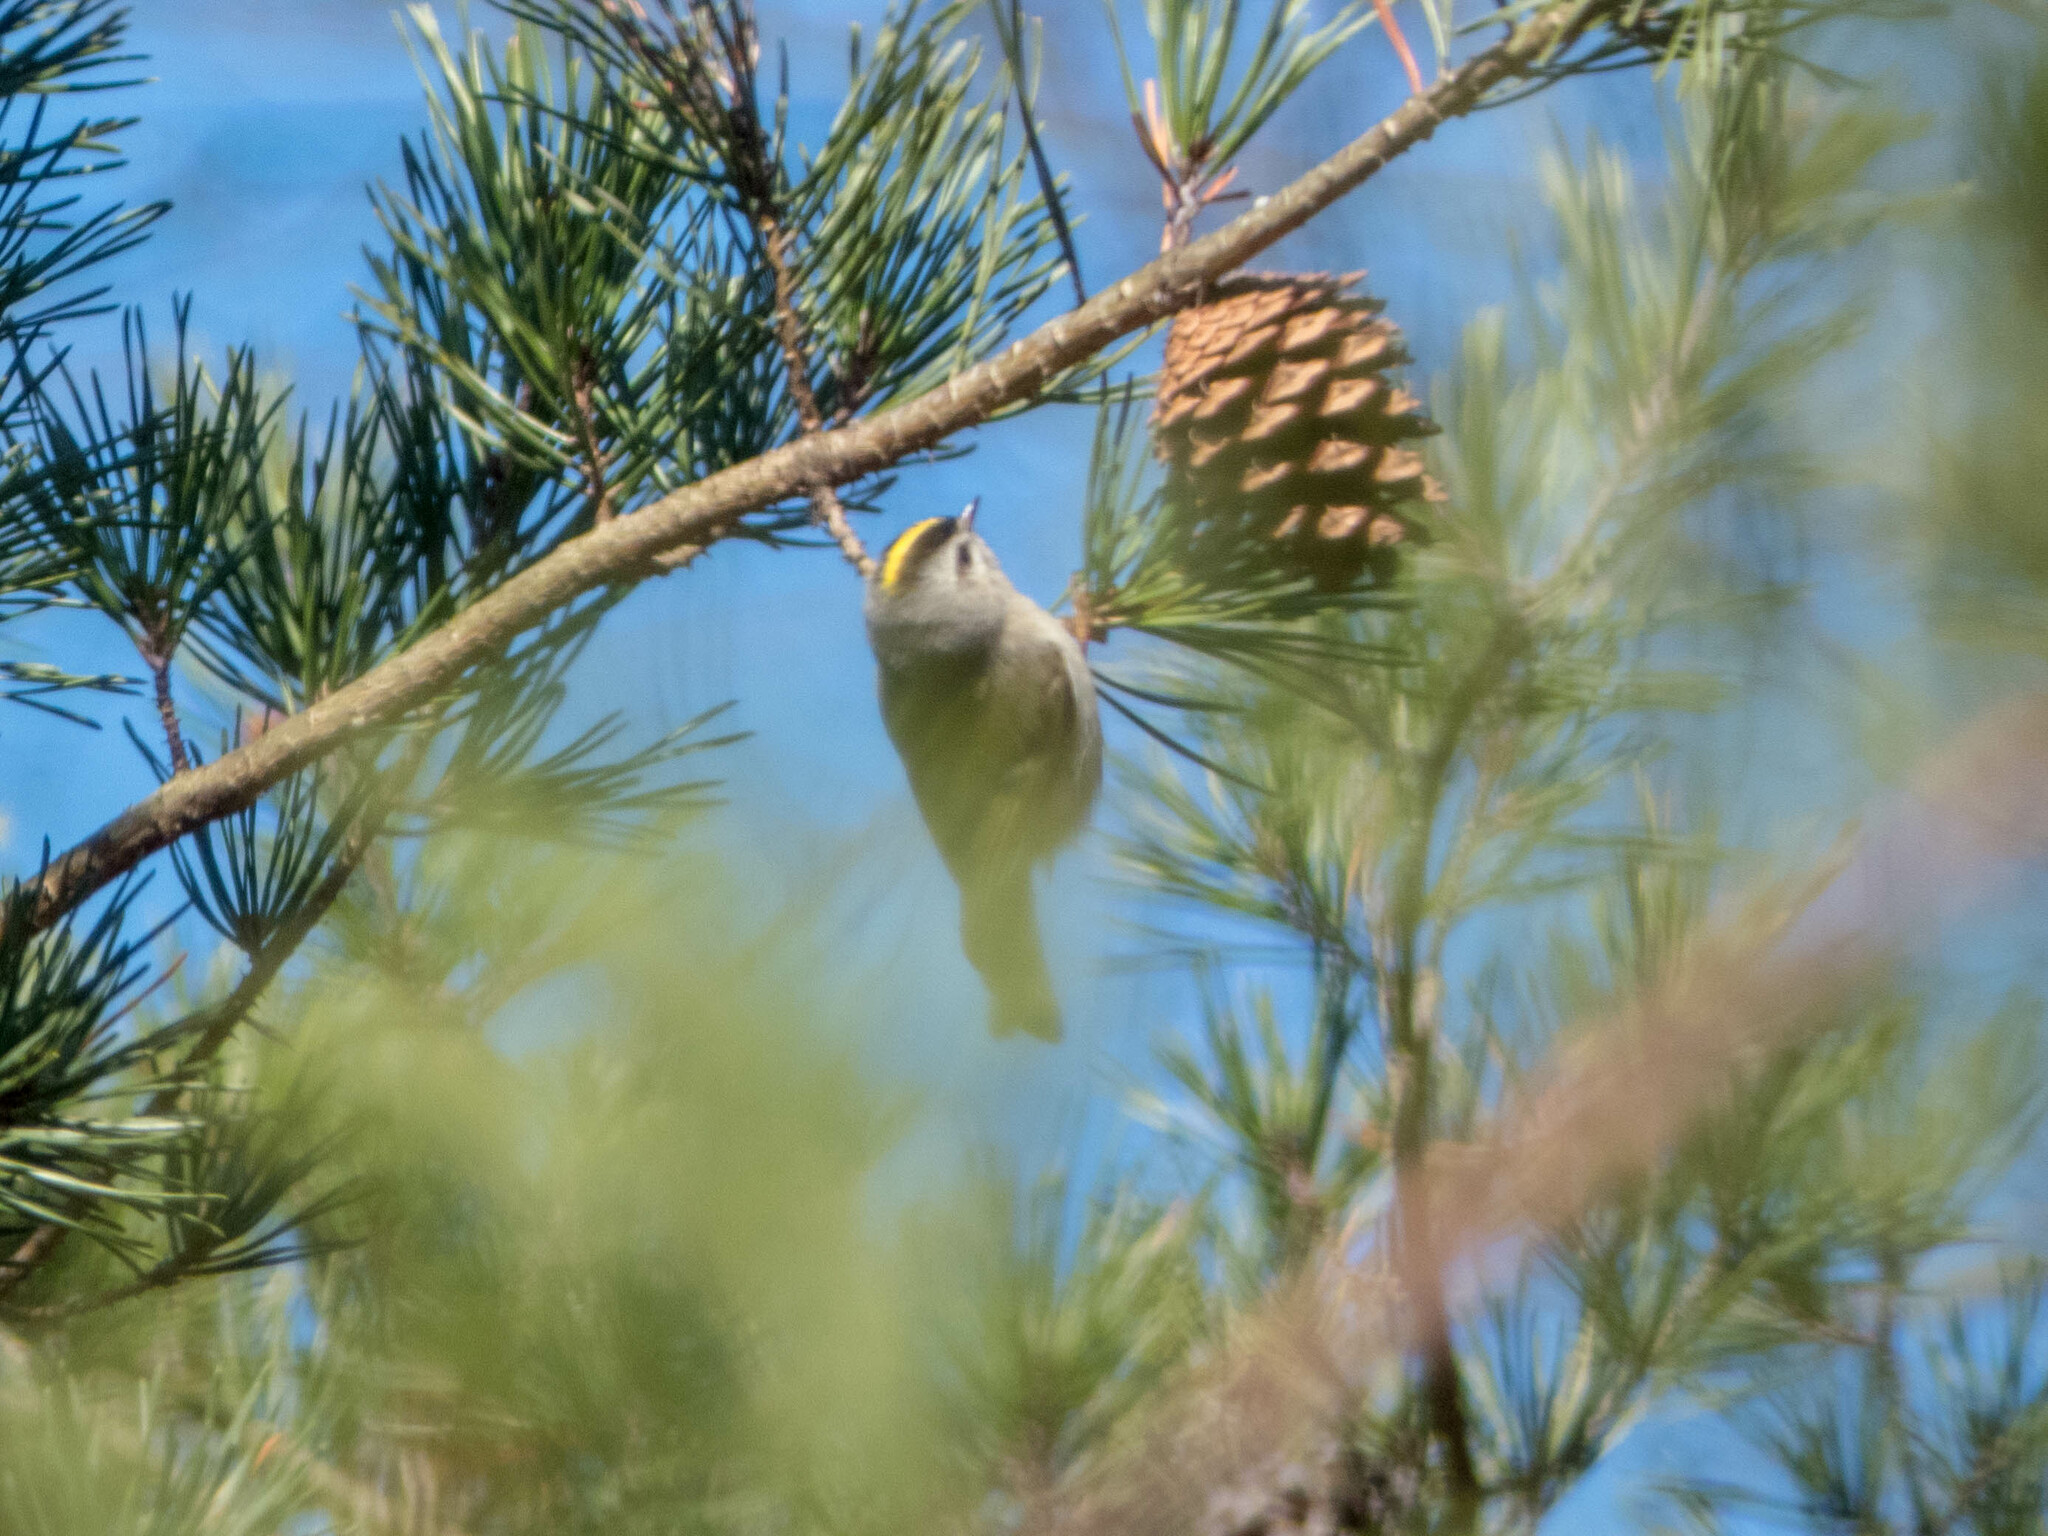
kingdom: Animalia
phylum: Chordata
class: Aves
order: Passeriformes
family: Regulidae
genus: Regulus
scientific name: Regulus satrapa
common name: Golden-crowned kinglet
